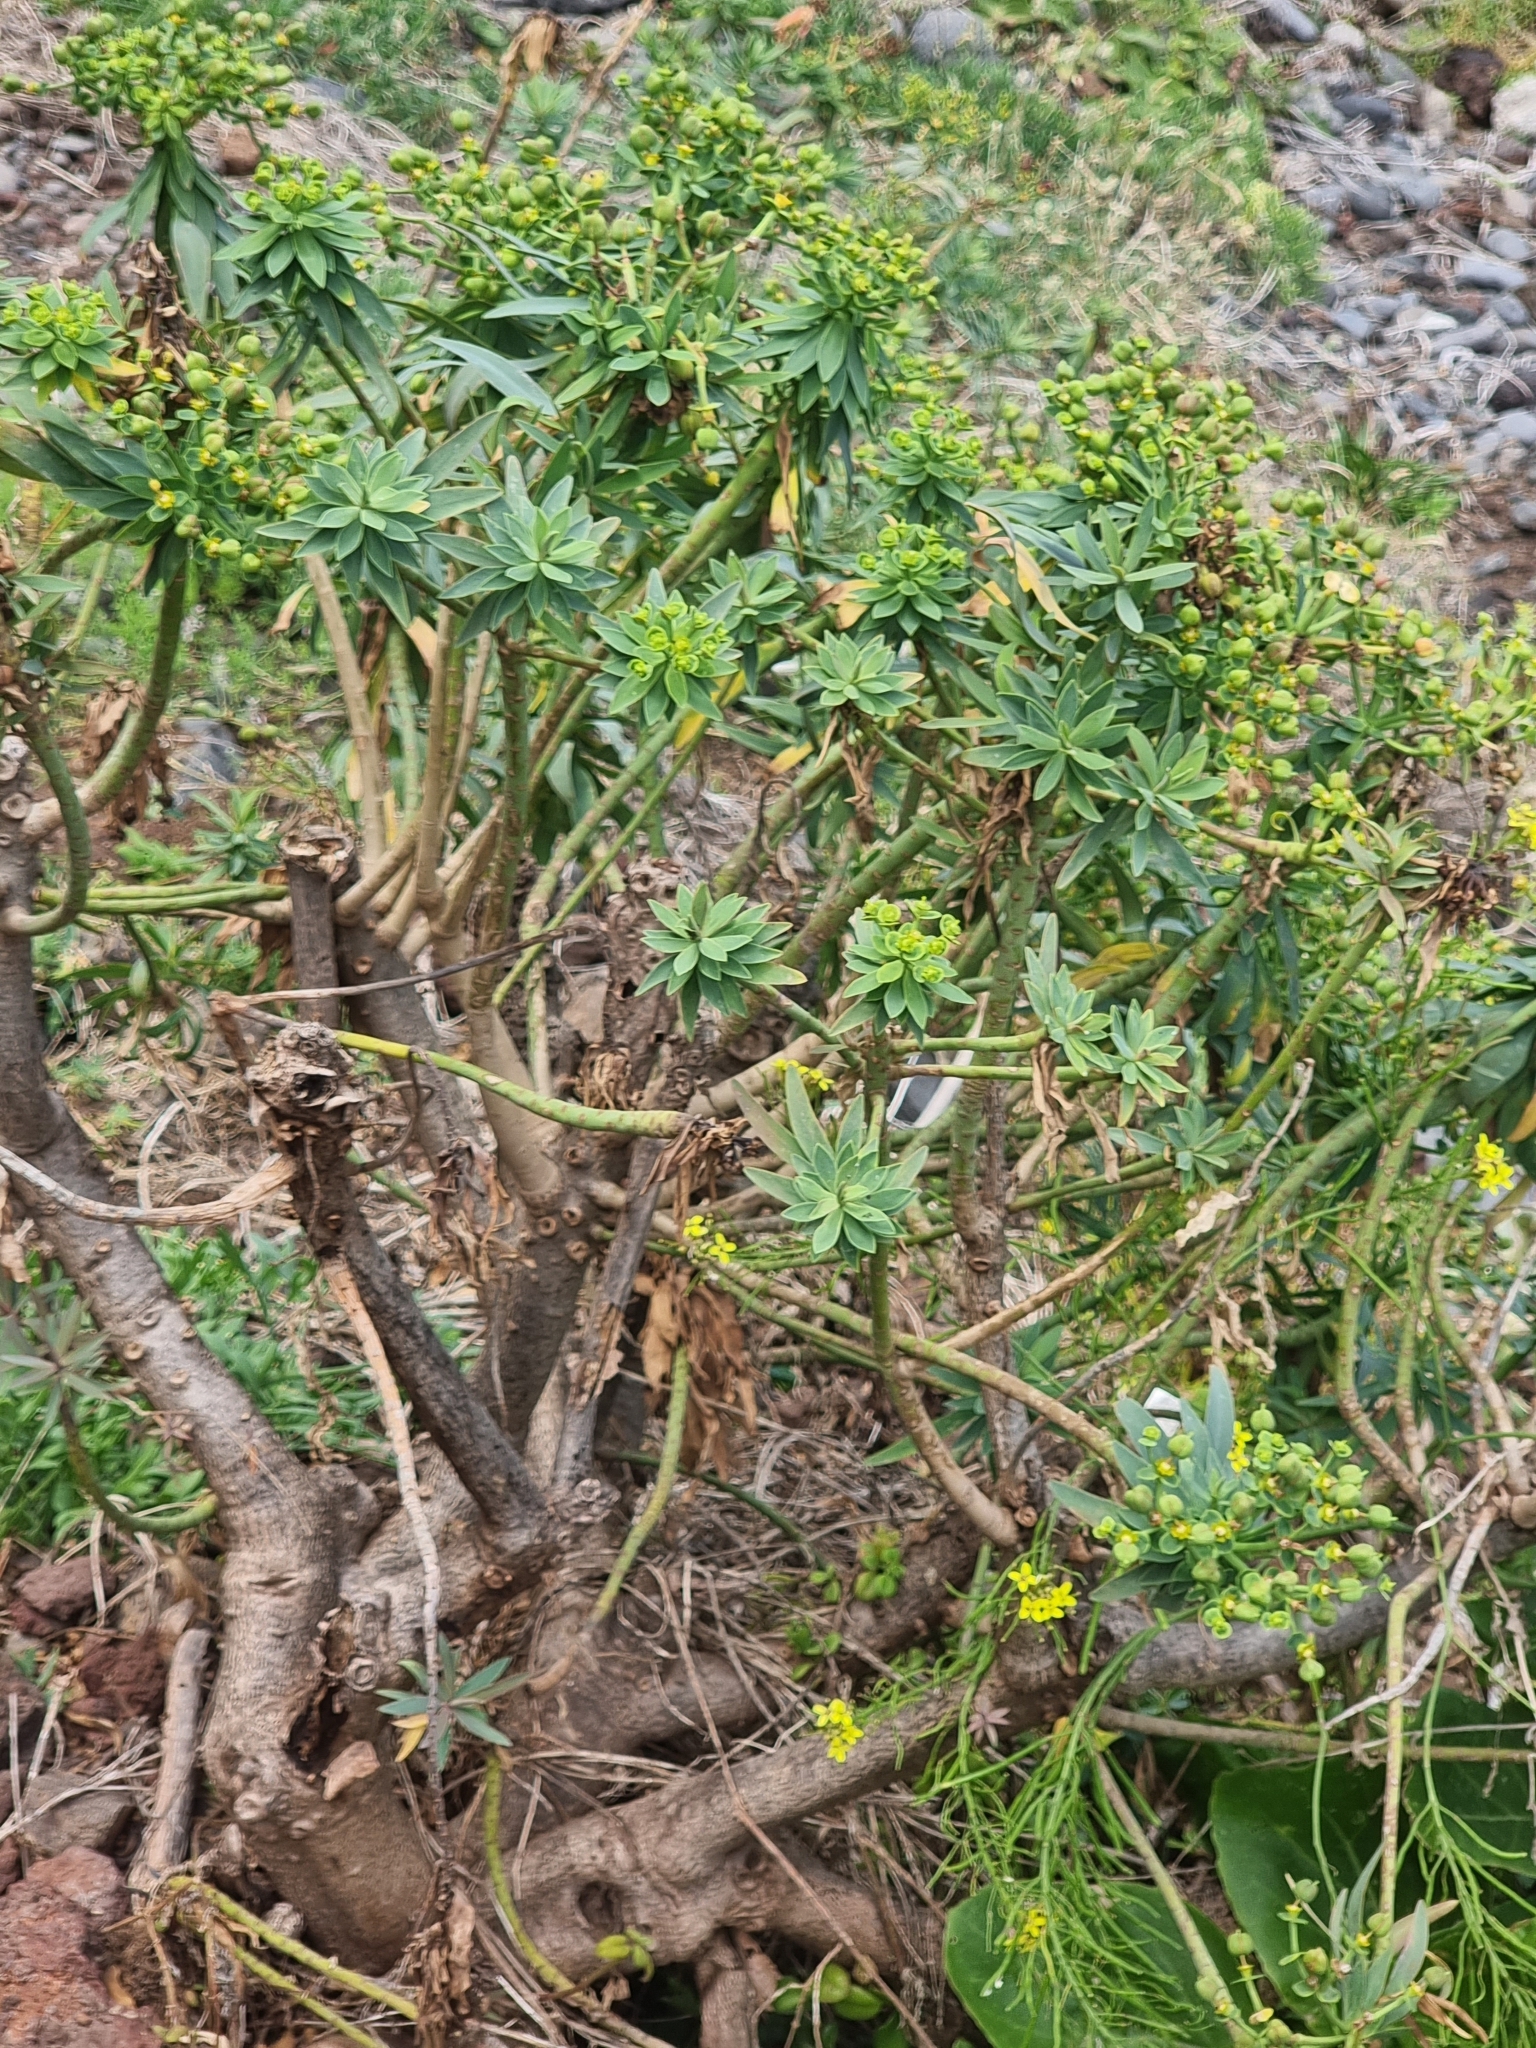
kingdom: Plantae
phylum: Tracheophyta
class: Magnoliopsida
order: Malpighiales
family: Euphorbiaceae
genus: Euphorbia
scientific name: Euphorbia piscatoria
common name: Fish-stunning spurge
